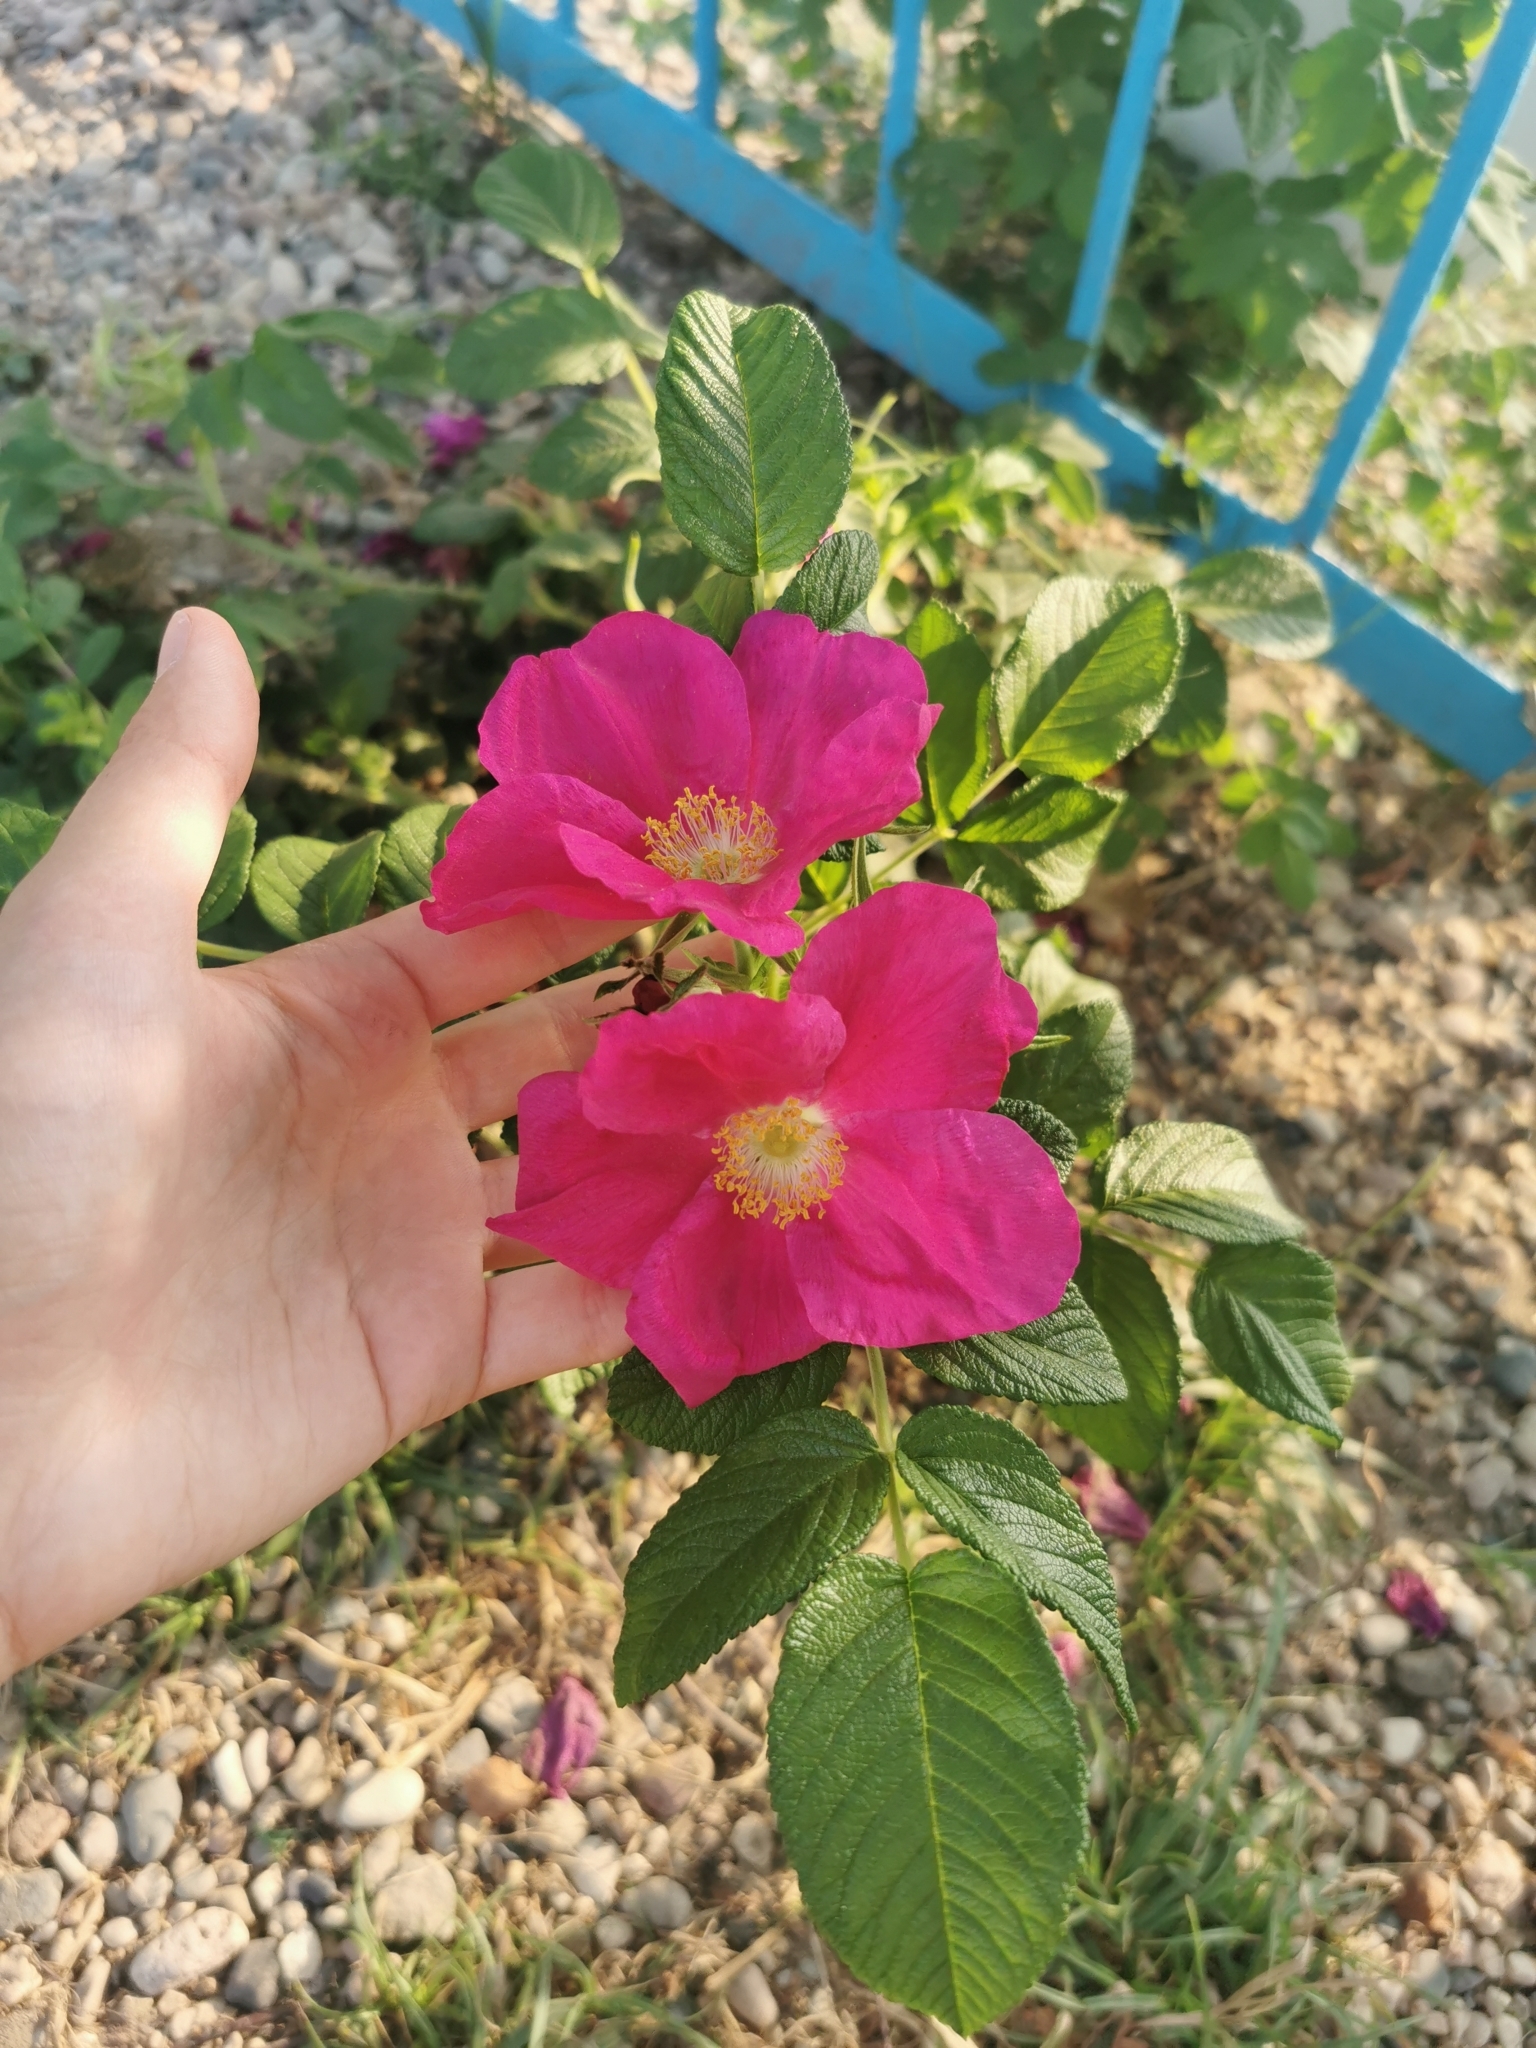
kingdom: Plantae
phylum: Tracheophyta
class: Magnoliopsida
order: Rosales
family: Rosaceae
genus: Rosa
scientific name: Rosa rugosa
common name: Japanese rose
